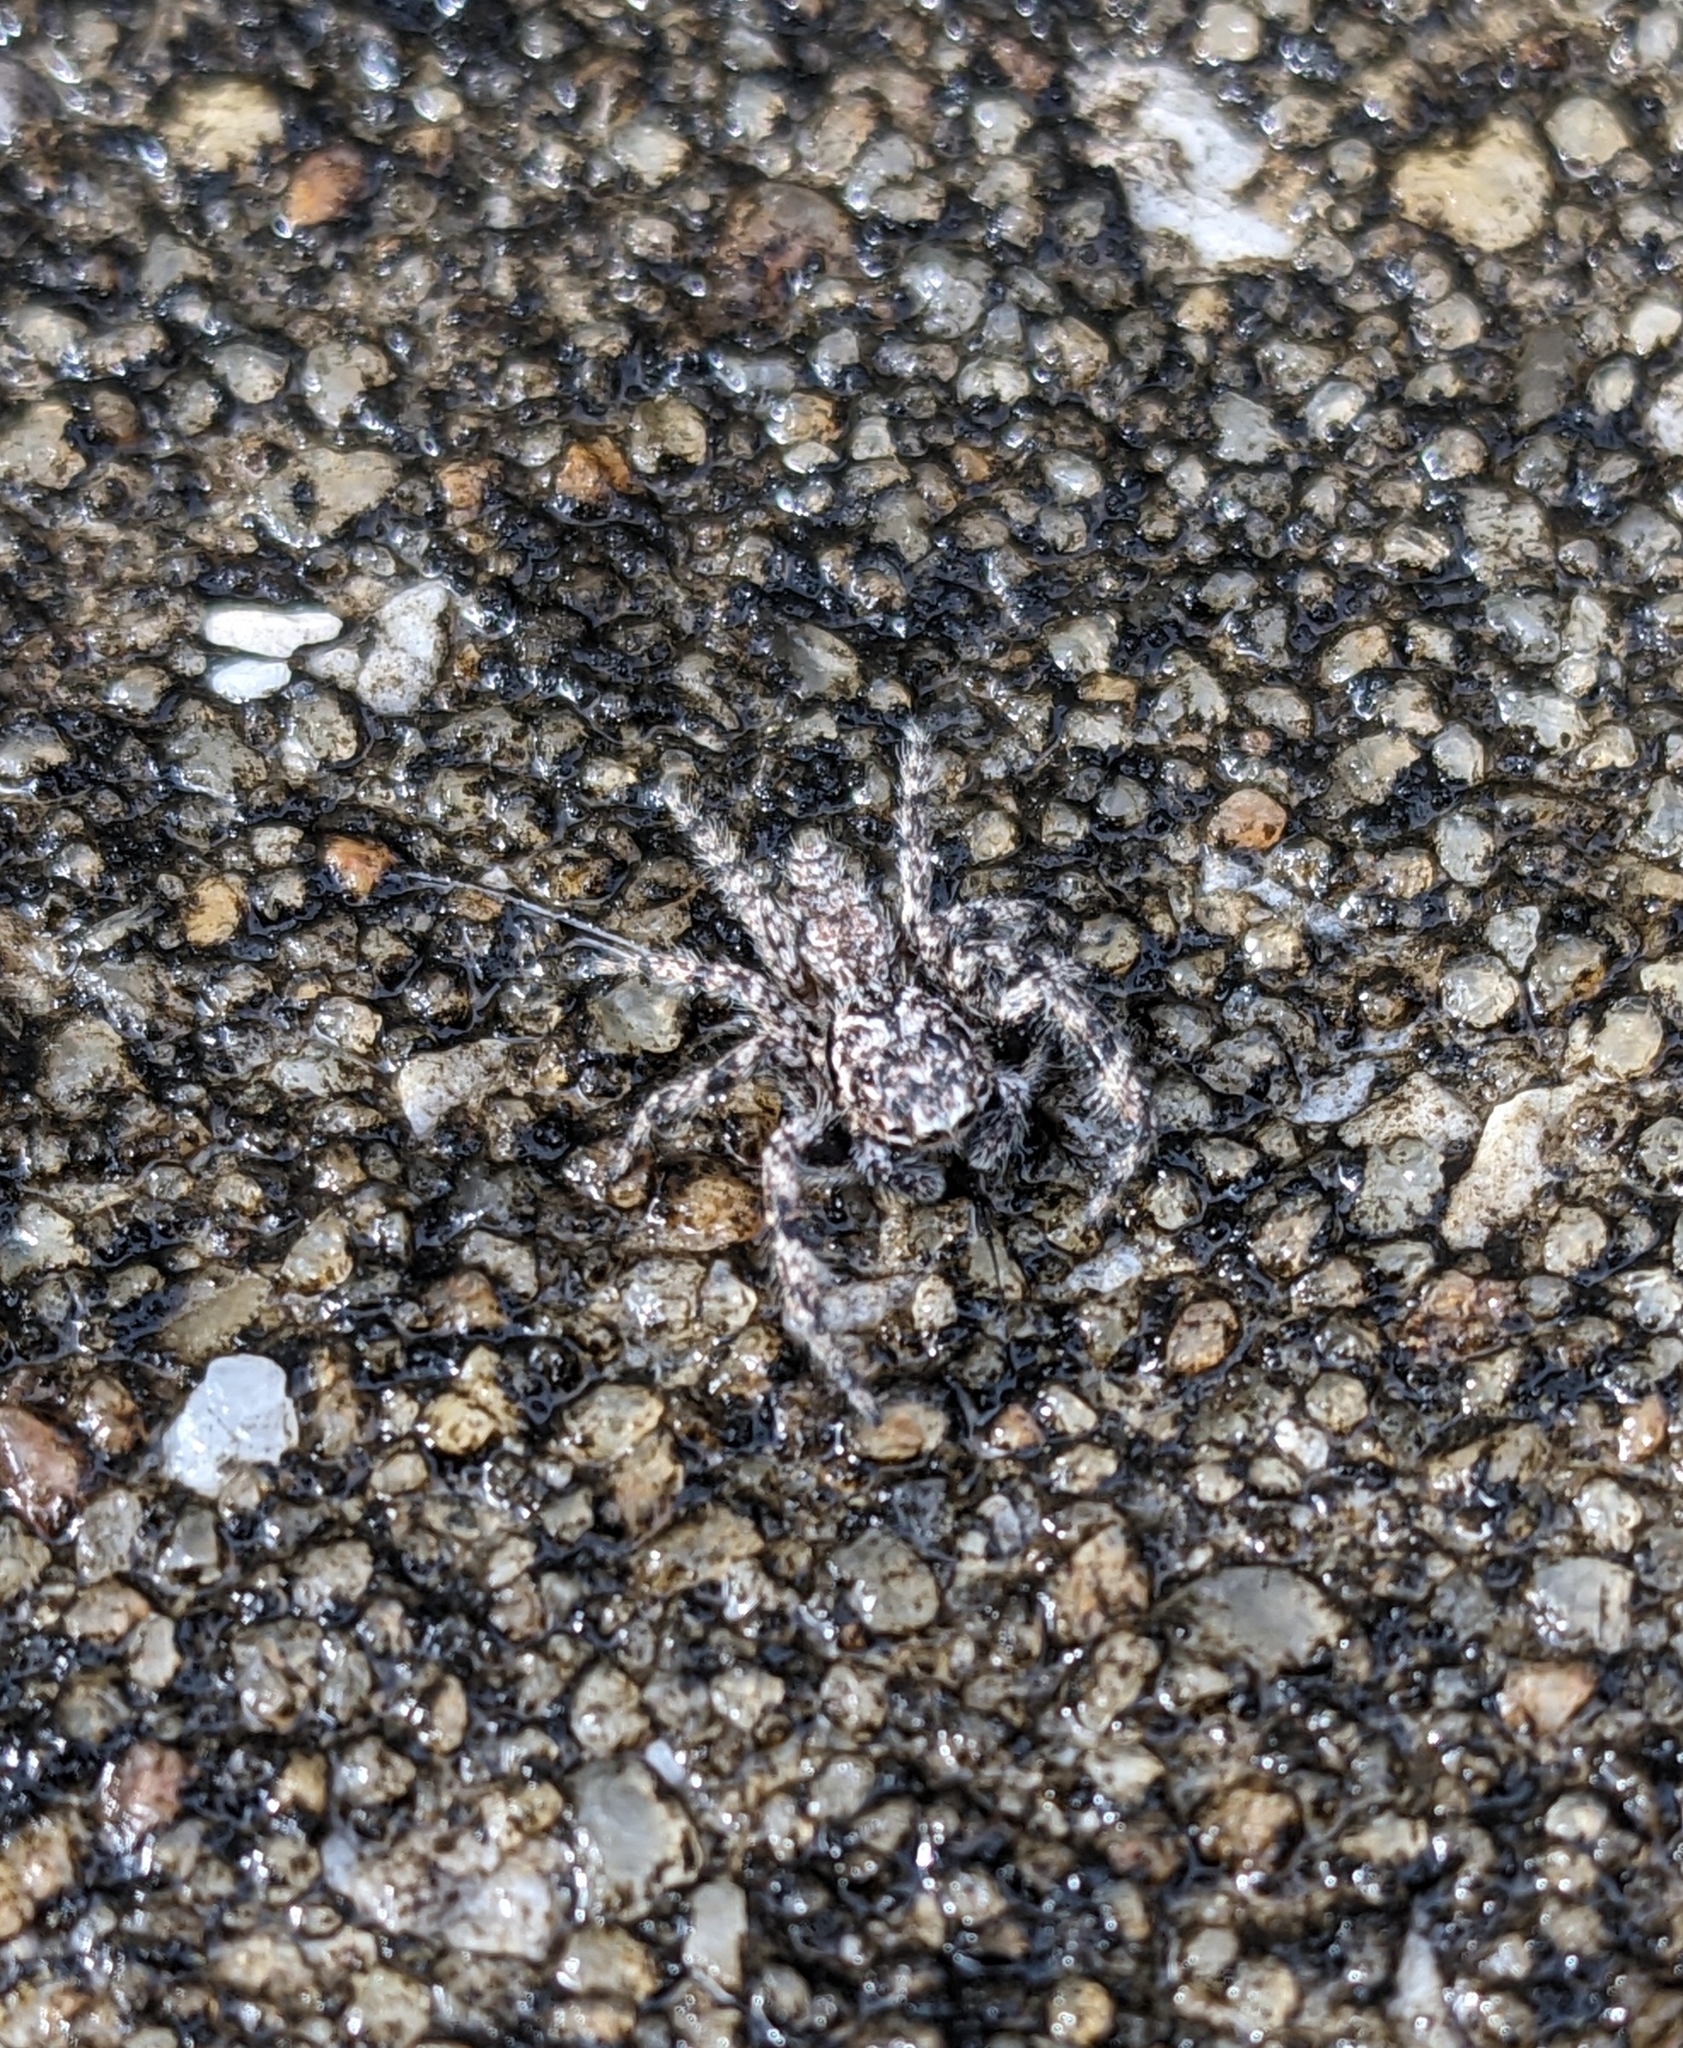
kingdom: Animalia
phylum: Arthropoda
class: Arachnida
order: Araneae
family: Salticidae
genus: Platycryptus
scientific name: Platycryptus undatus
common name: Tan jumping spider
